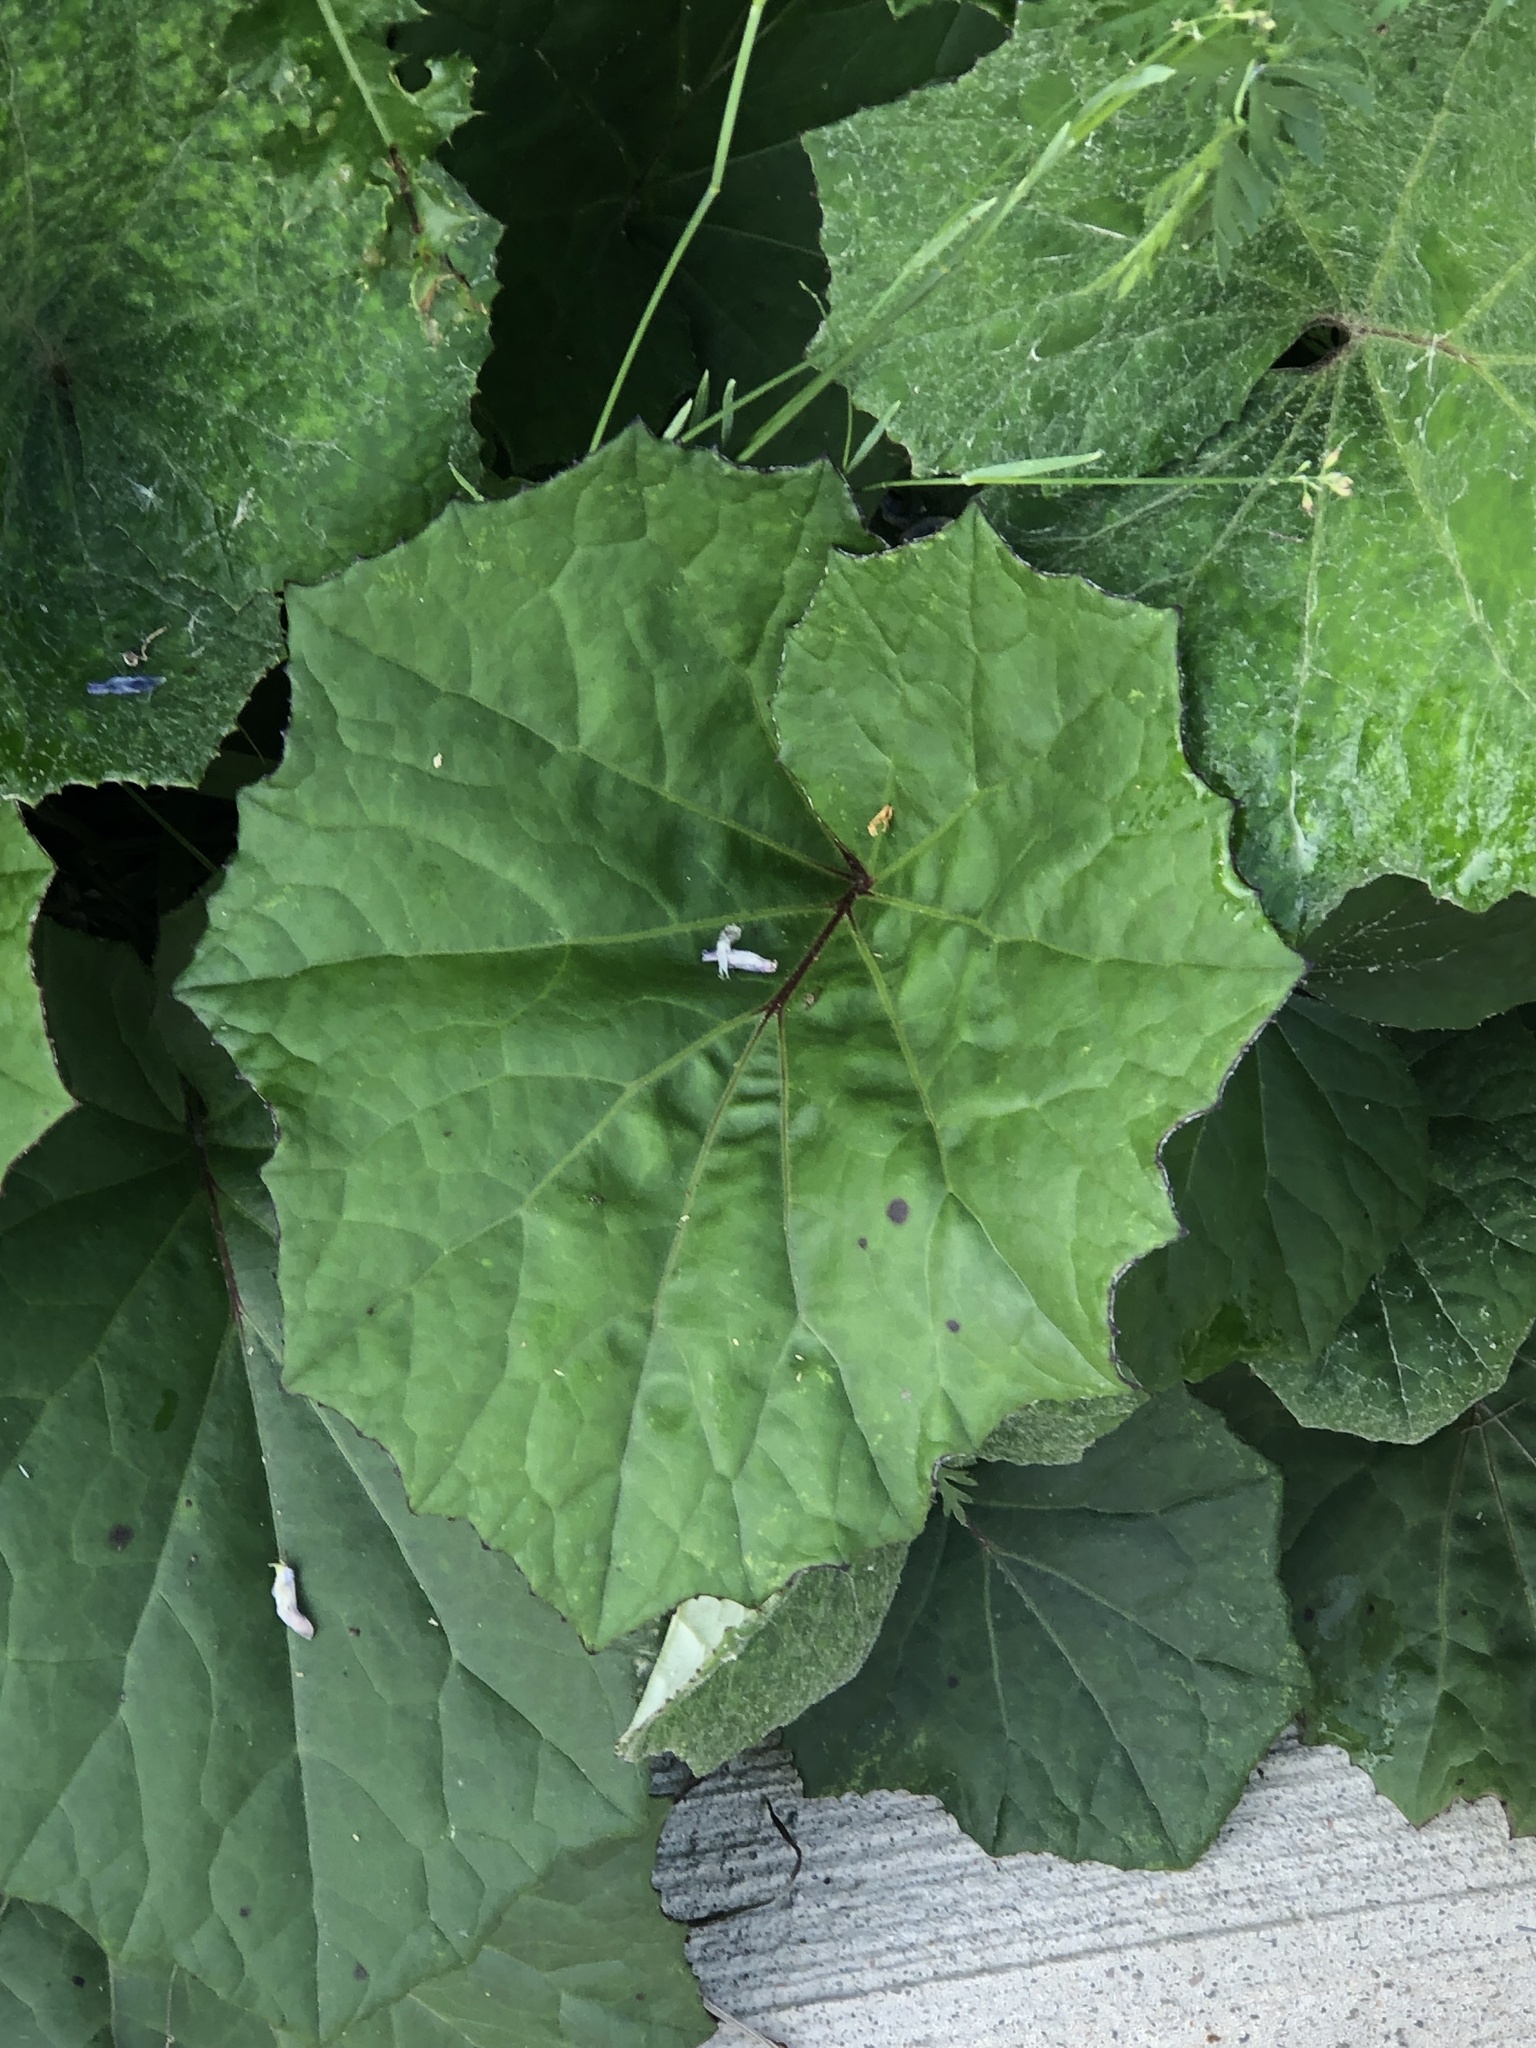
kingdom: Plantae
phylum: Tracheophyta
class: Magnoliopsida
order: Asterales
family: Asteraceae
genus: Tussilago
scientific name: Tussilago farfara
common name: Coltsfoot
